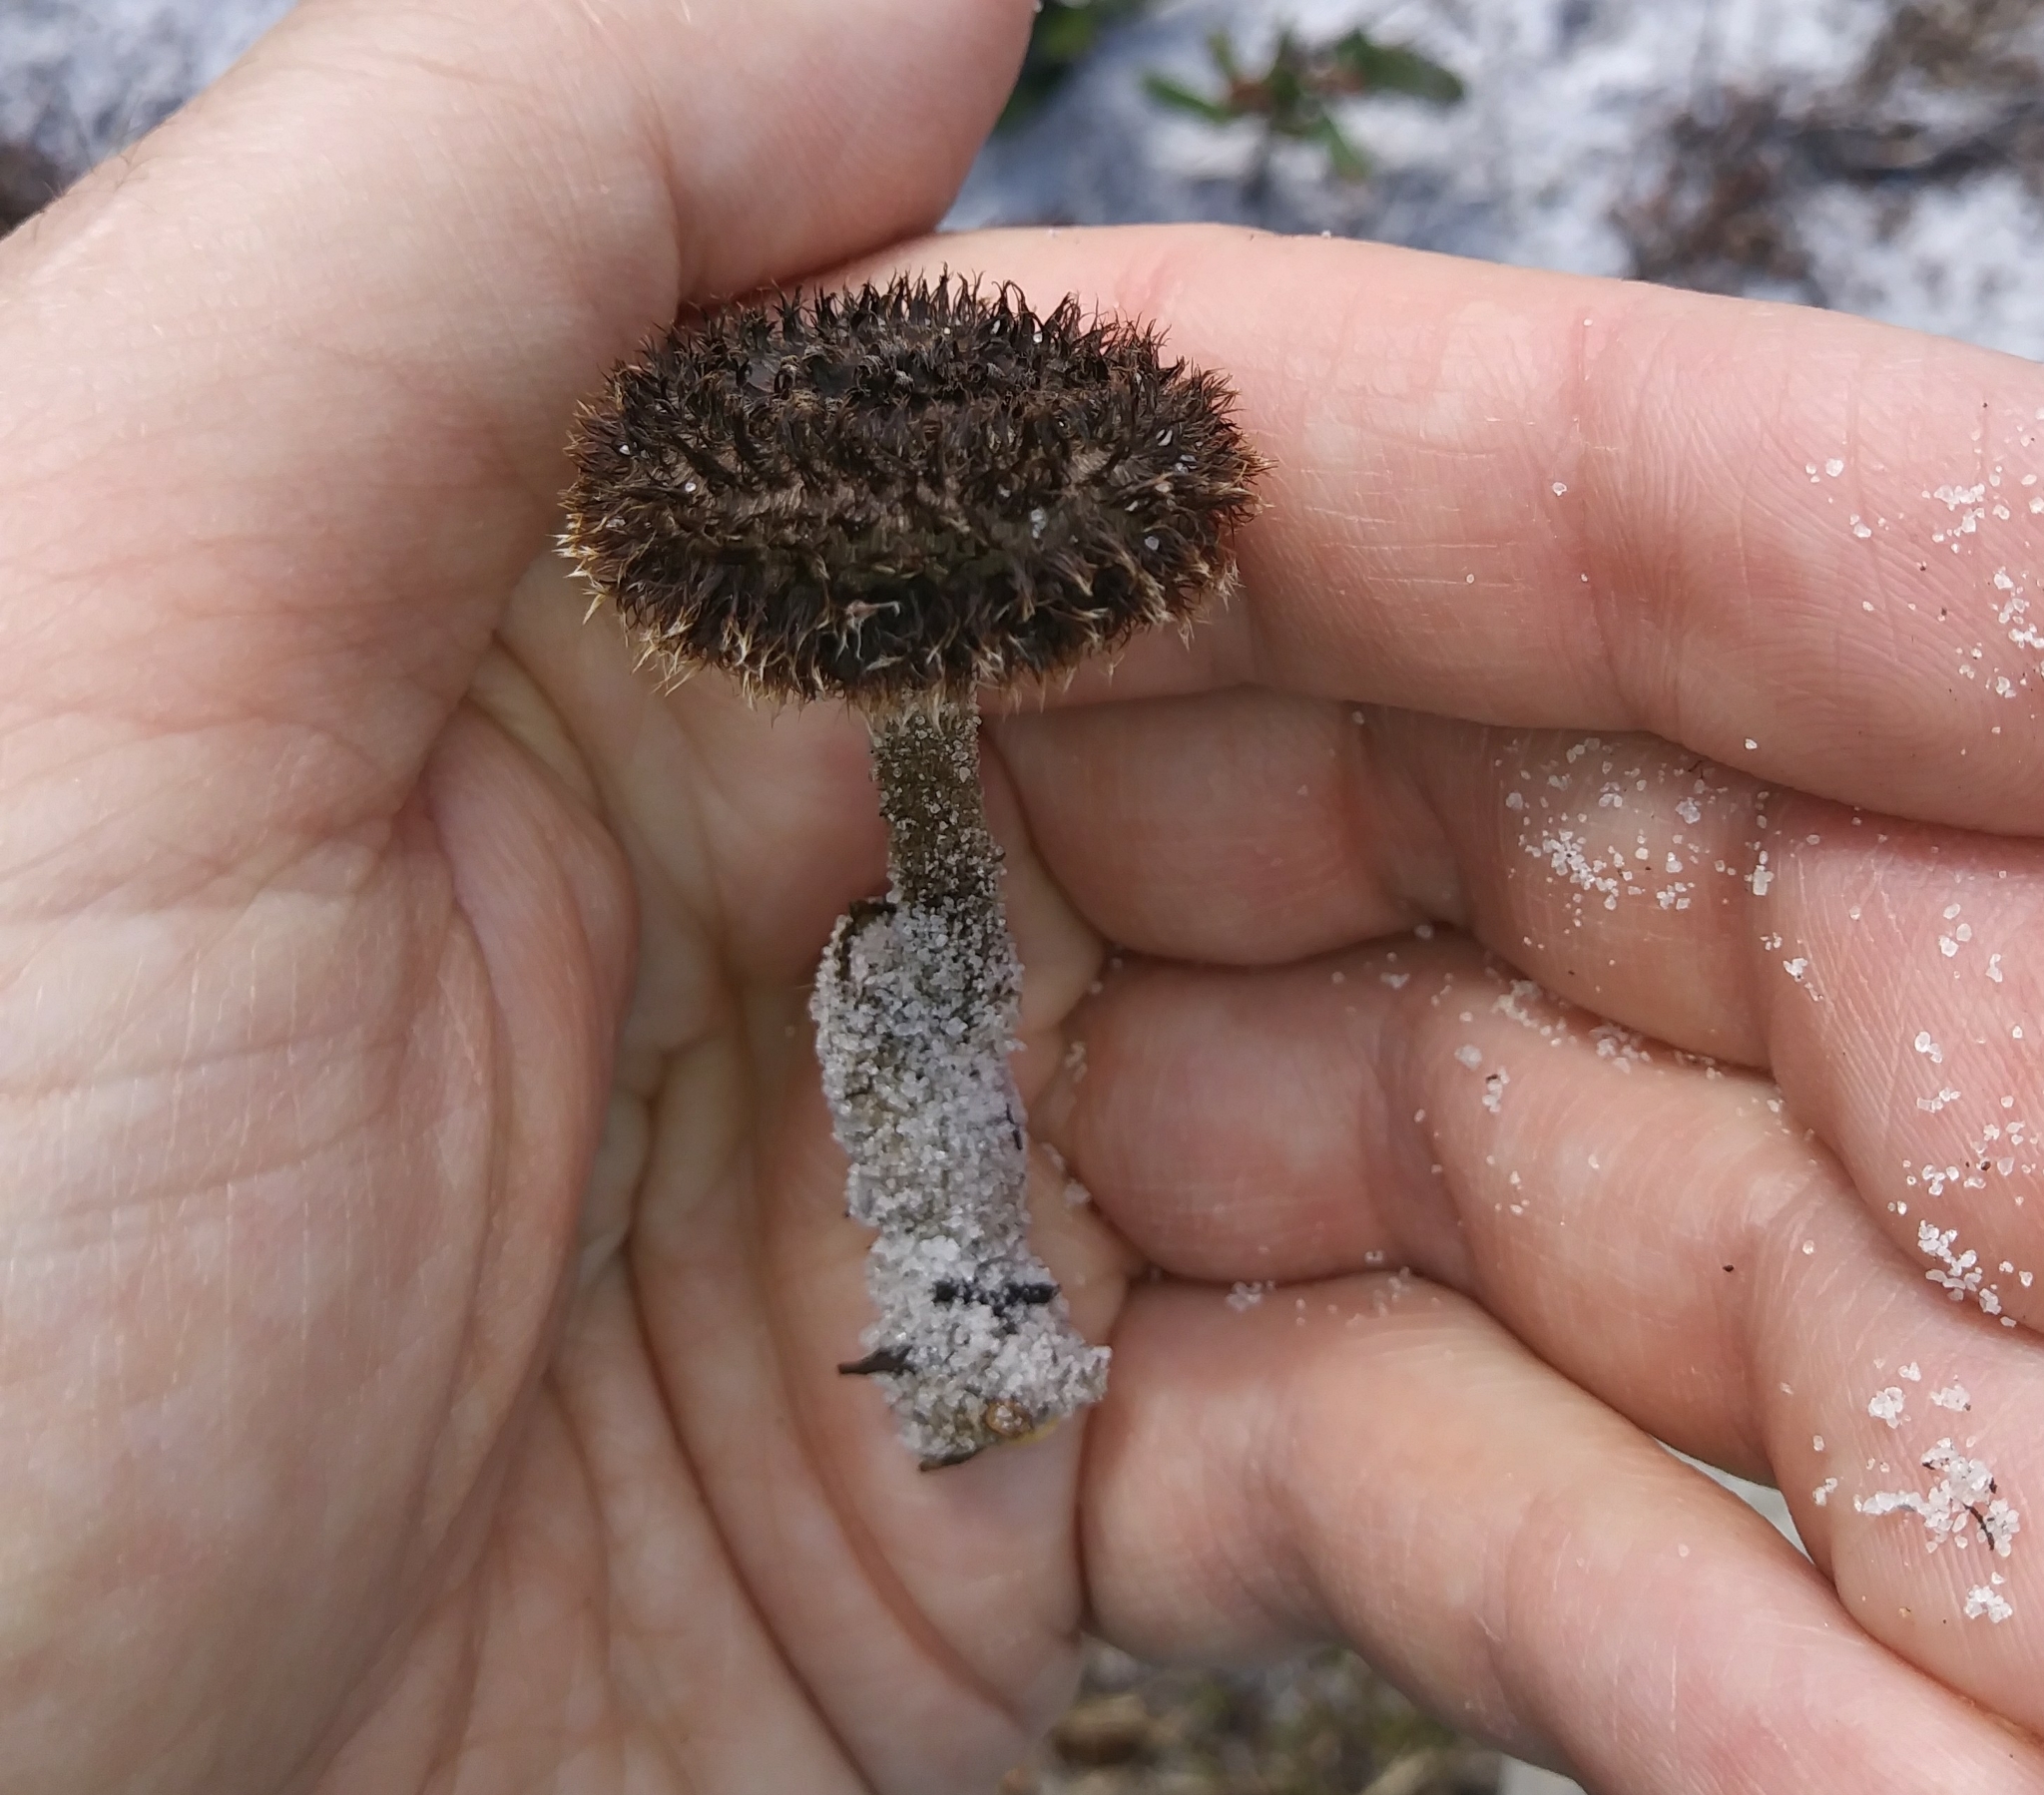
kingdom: Fungi
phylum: Basidiomycota
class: Agaricomycetes
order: Polyporales
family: Polyporaceae
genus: Lentinus
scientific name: Lentinus crinitus
